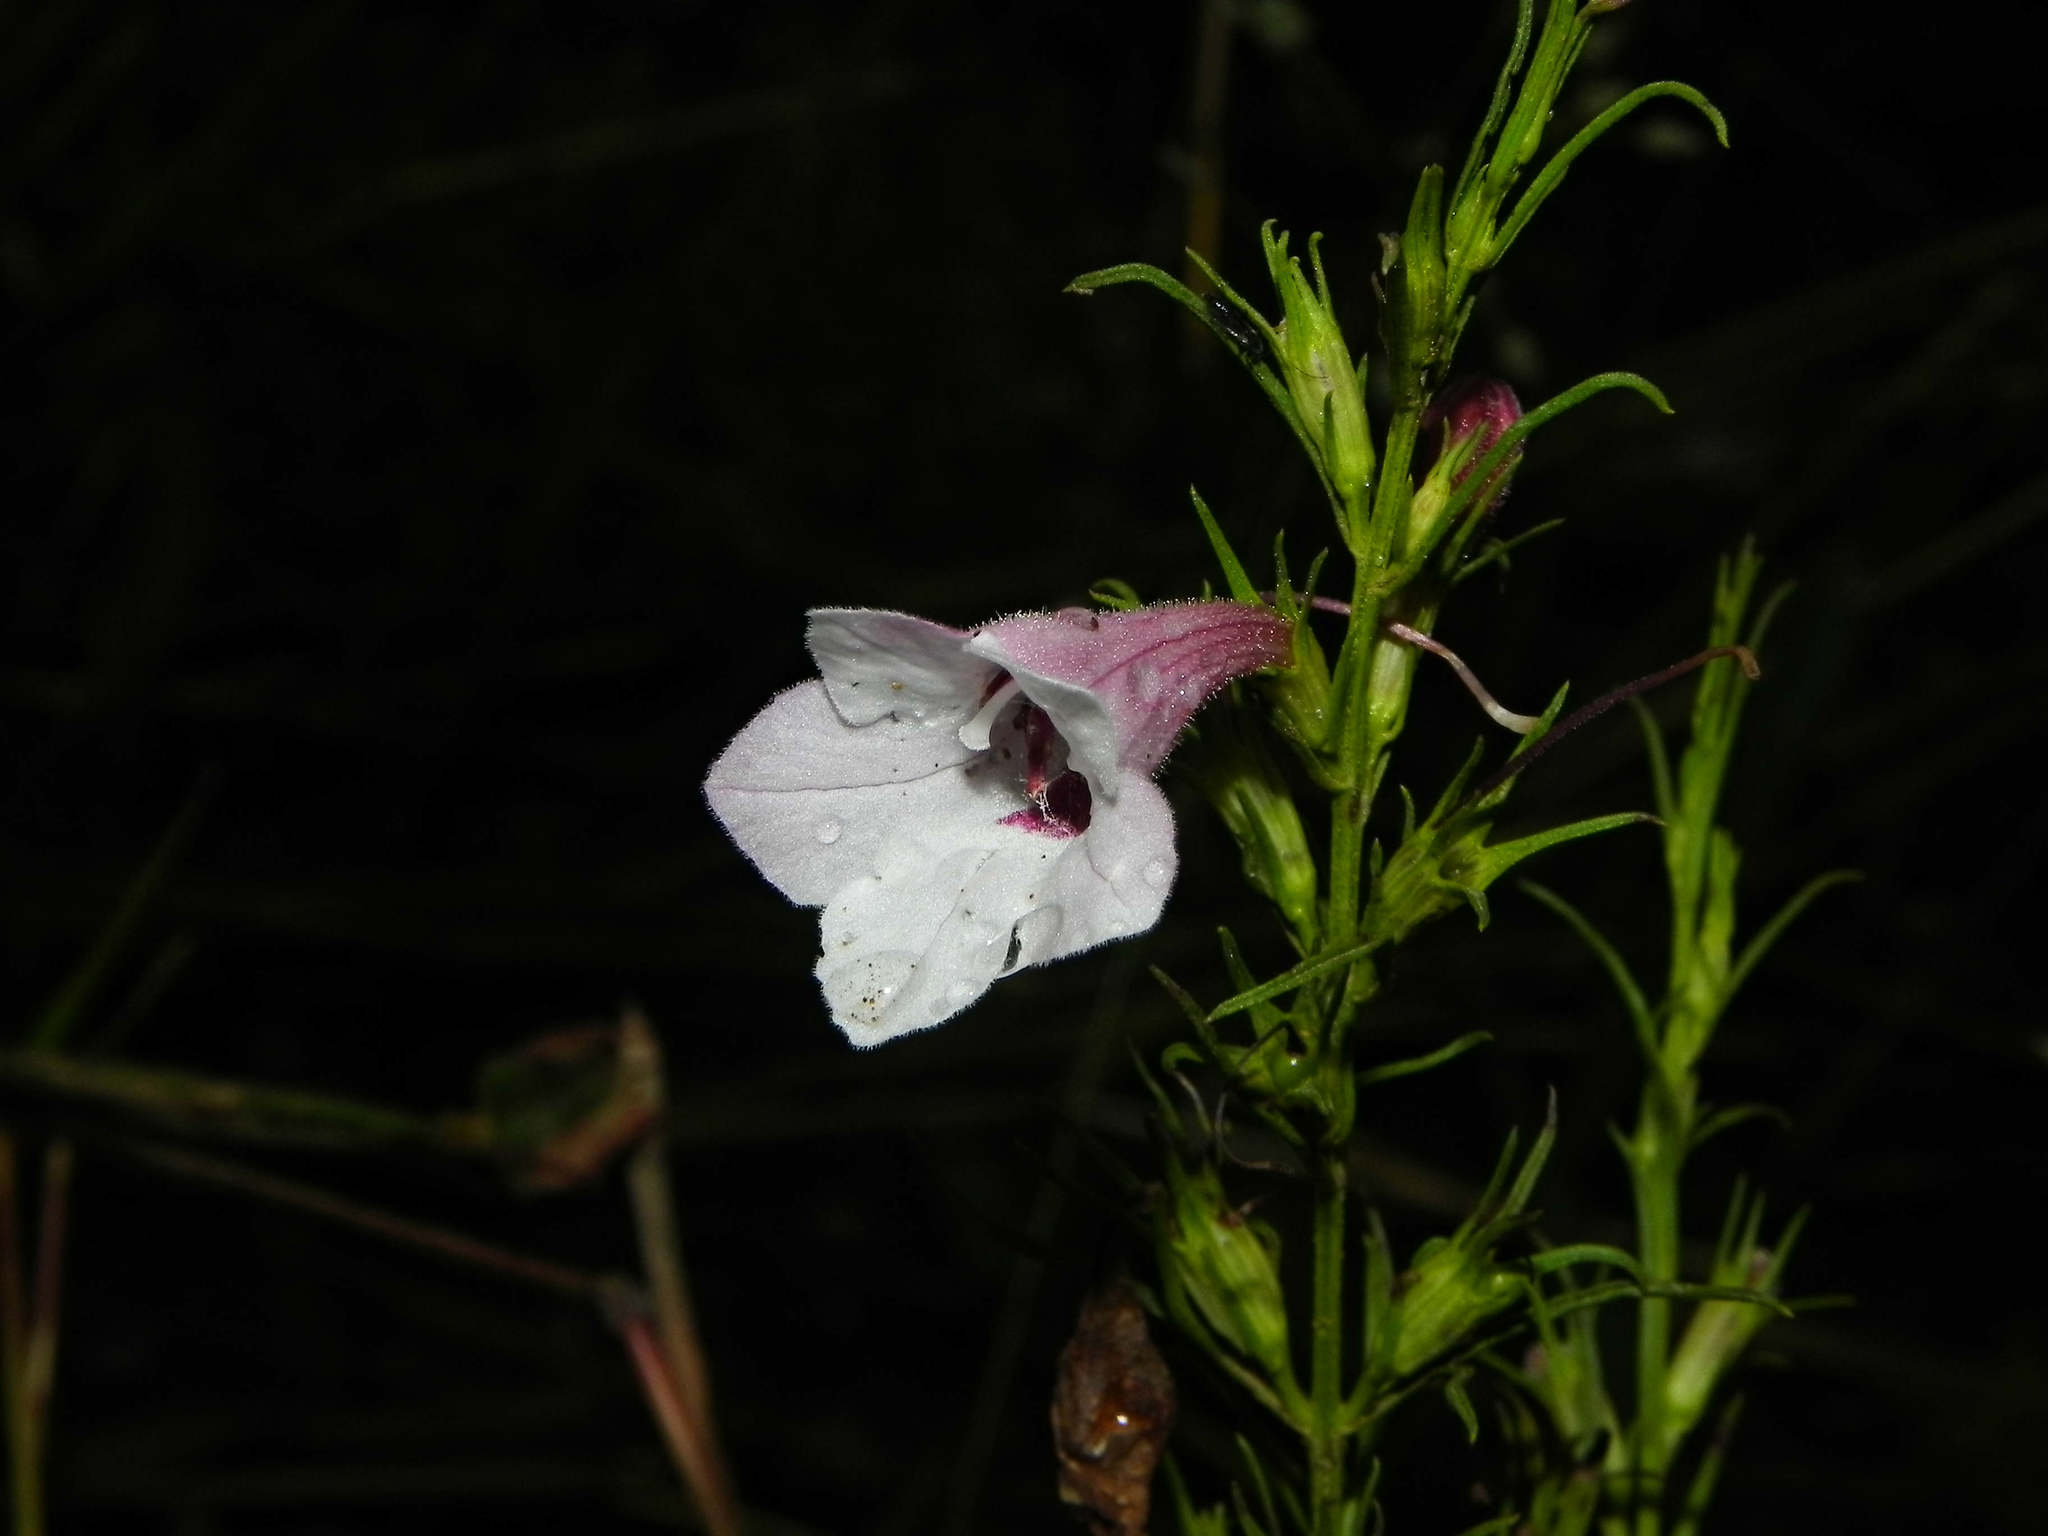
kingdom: Plantae
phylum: Tracheophyta
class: Magnoliopsida
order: Lamiales
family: Orobanchaceae
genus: Parasopubia
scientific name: Parasopubia delphiniifolia
